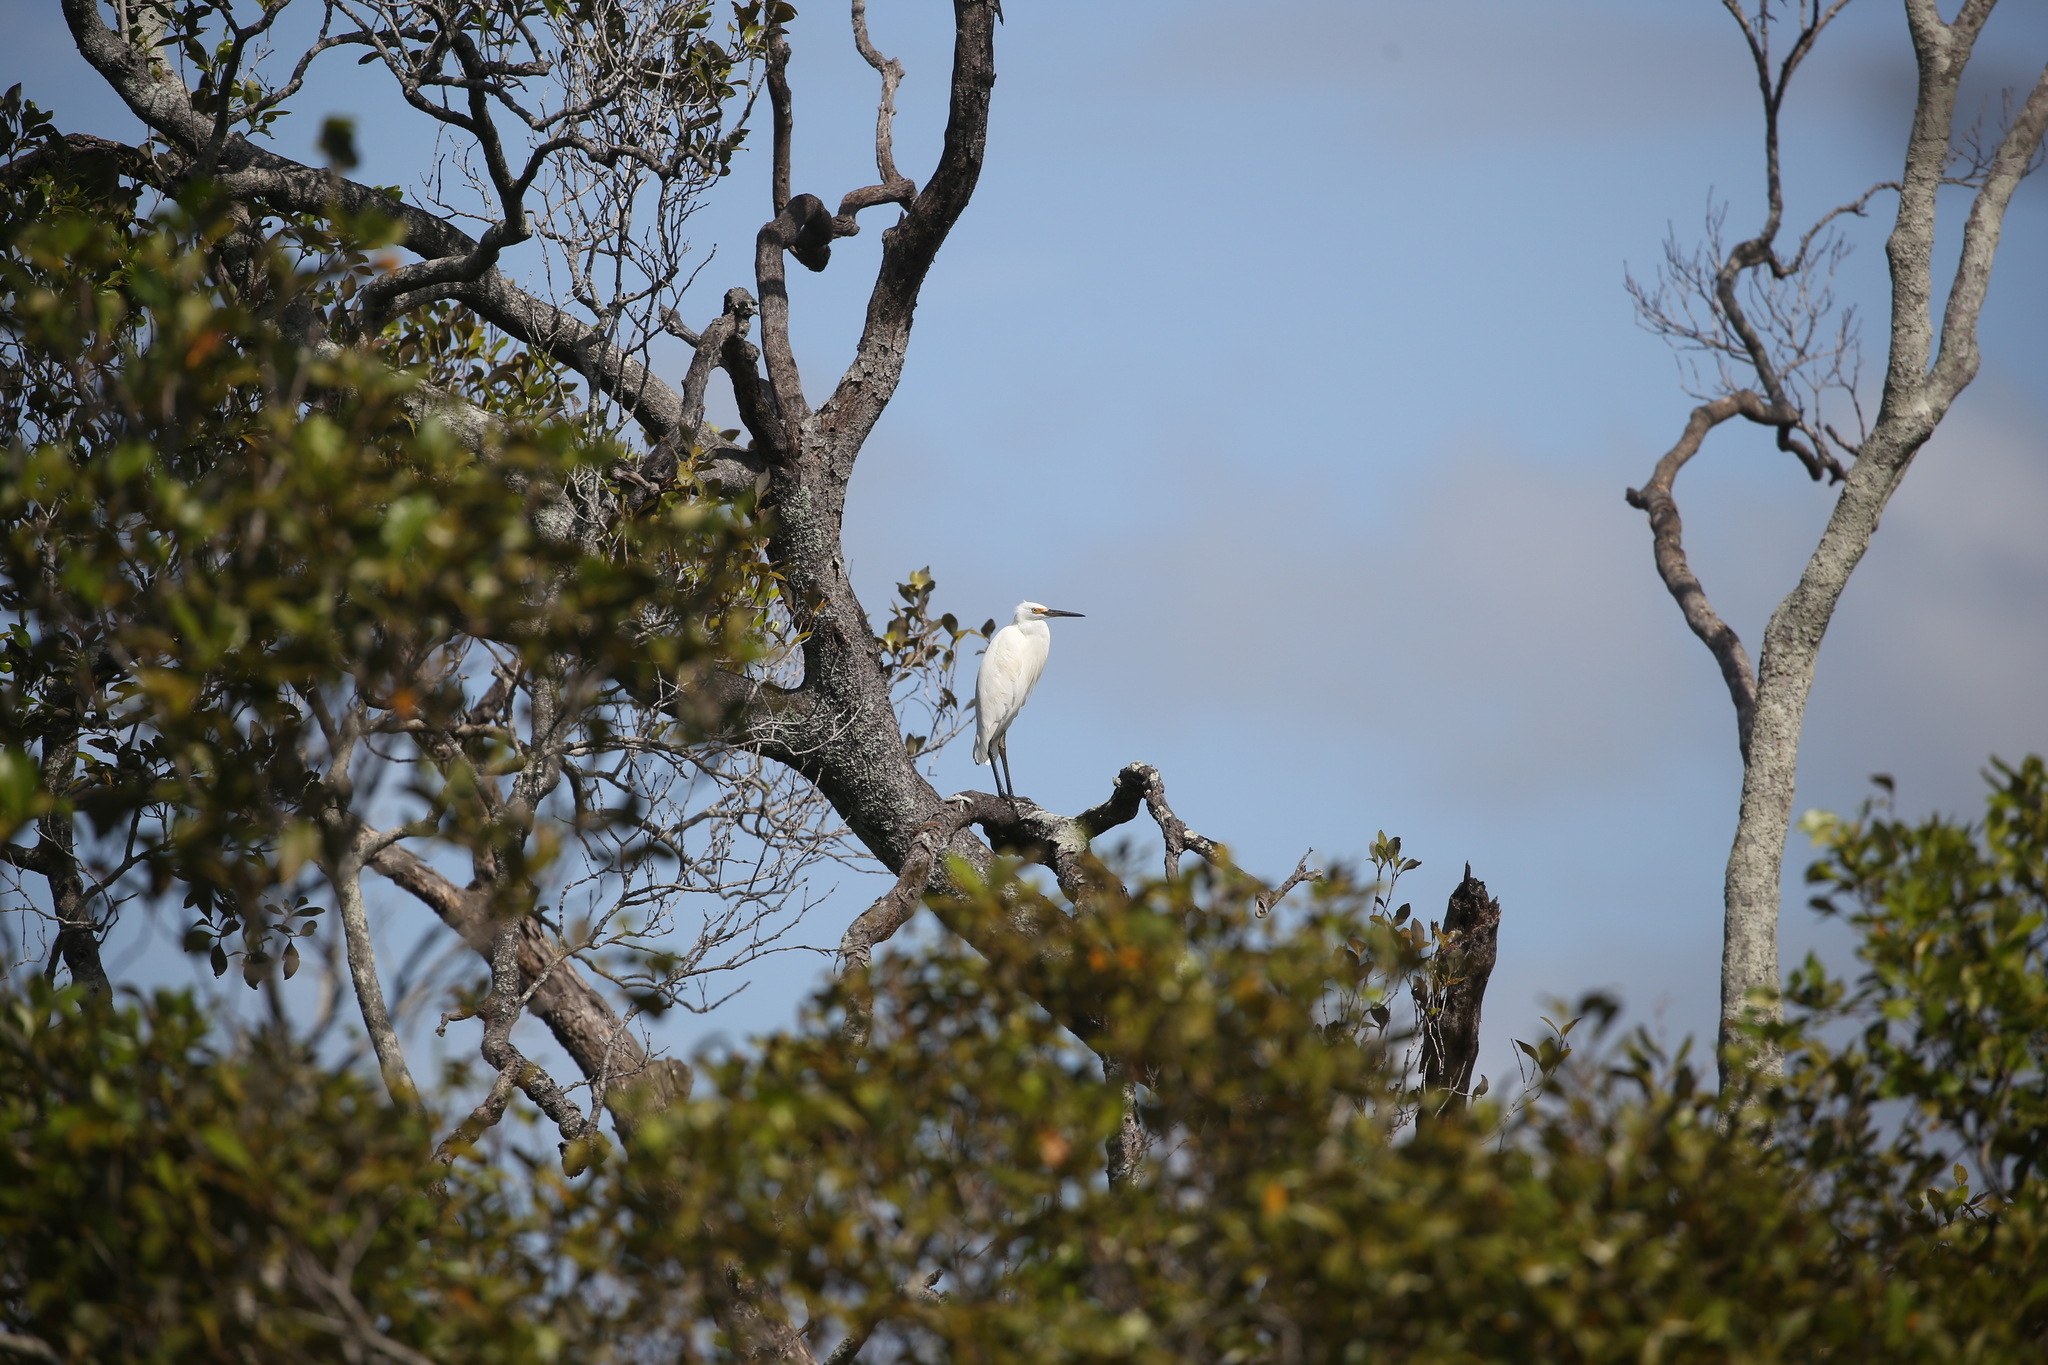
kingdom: Animalia
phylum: Chordata
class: Aves
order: Pelecaniformes
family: Ardeidae
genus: Egretta
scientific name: Egretta garzetta
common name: Little egret
